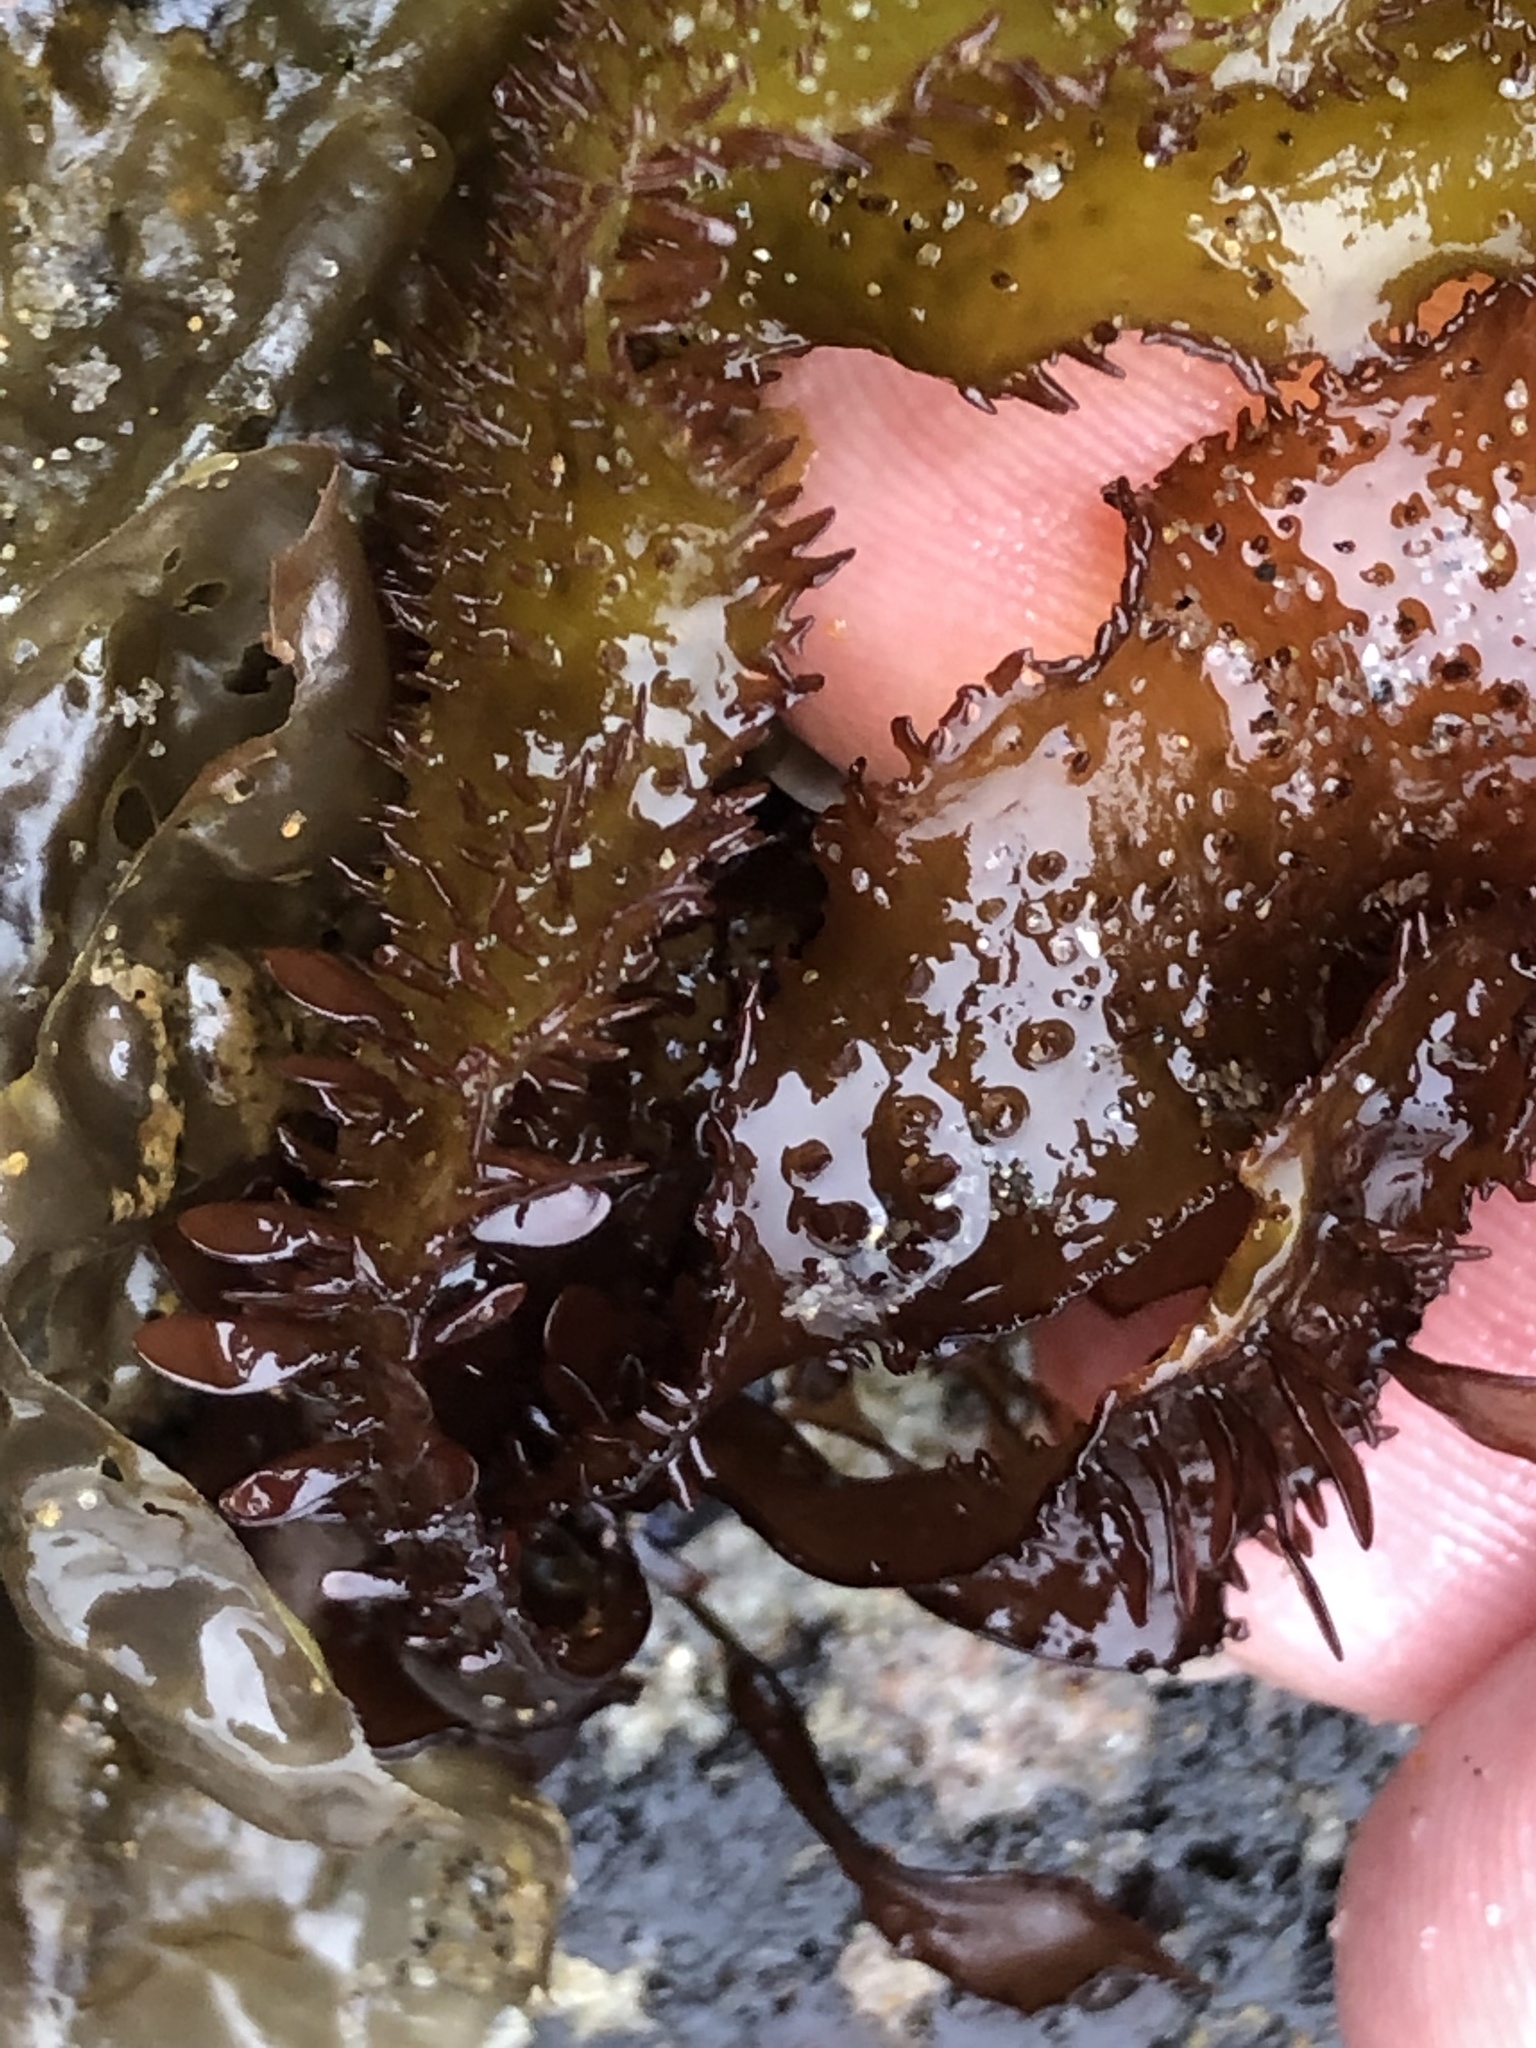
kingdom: Plantae
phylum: Rhodophyta
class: Florideophyceae
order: Gigartinales
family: Phyllophoraceae
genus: Mastocarpus
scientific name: Mastocarpus papillatus
